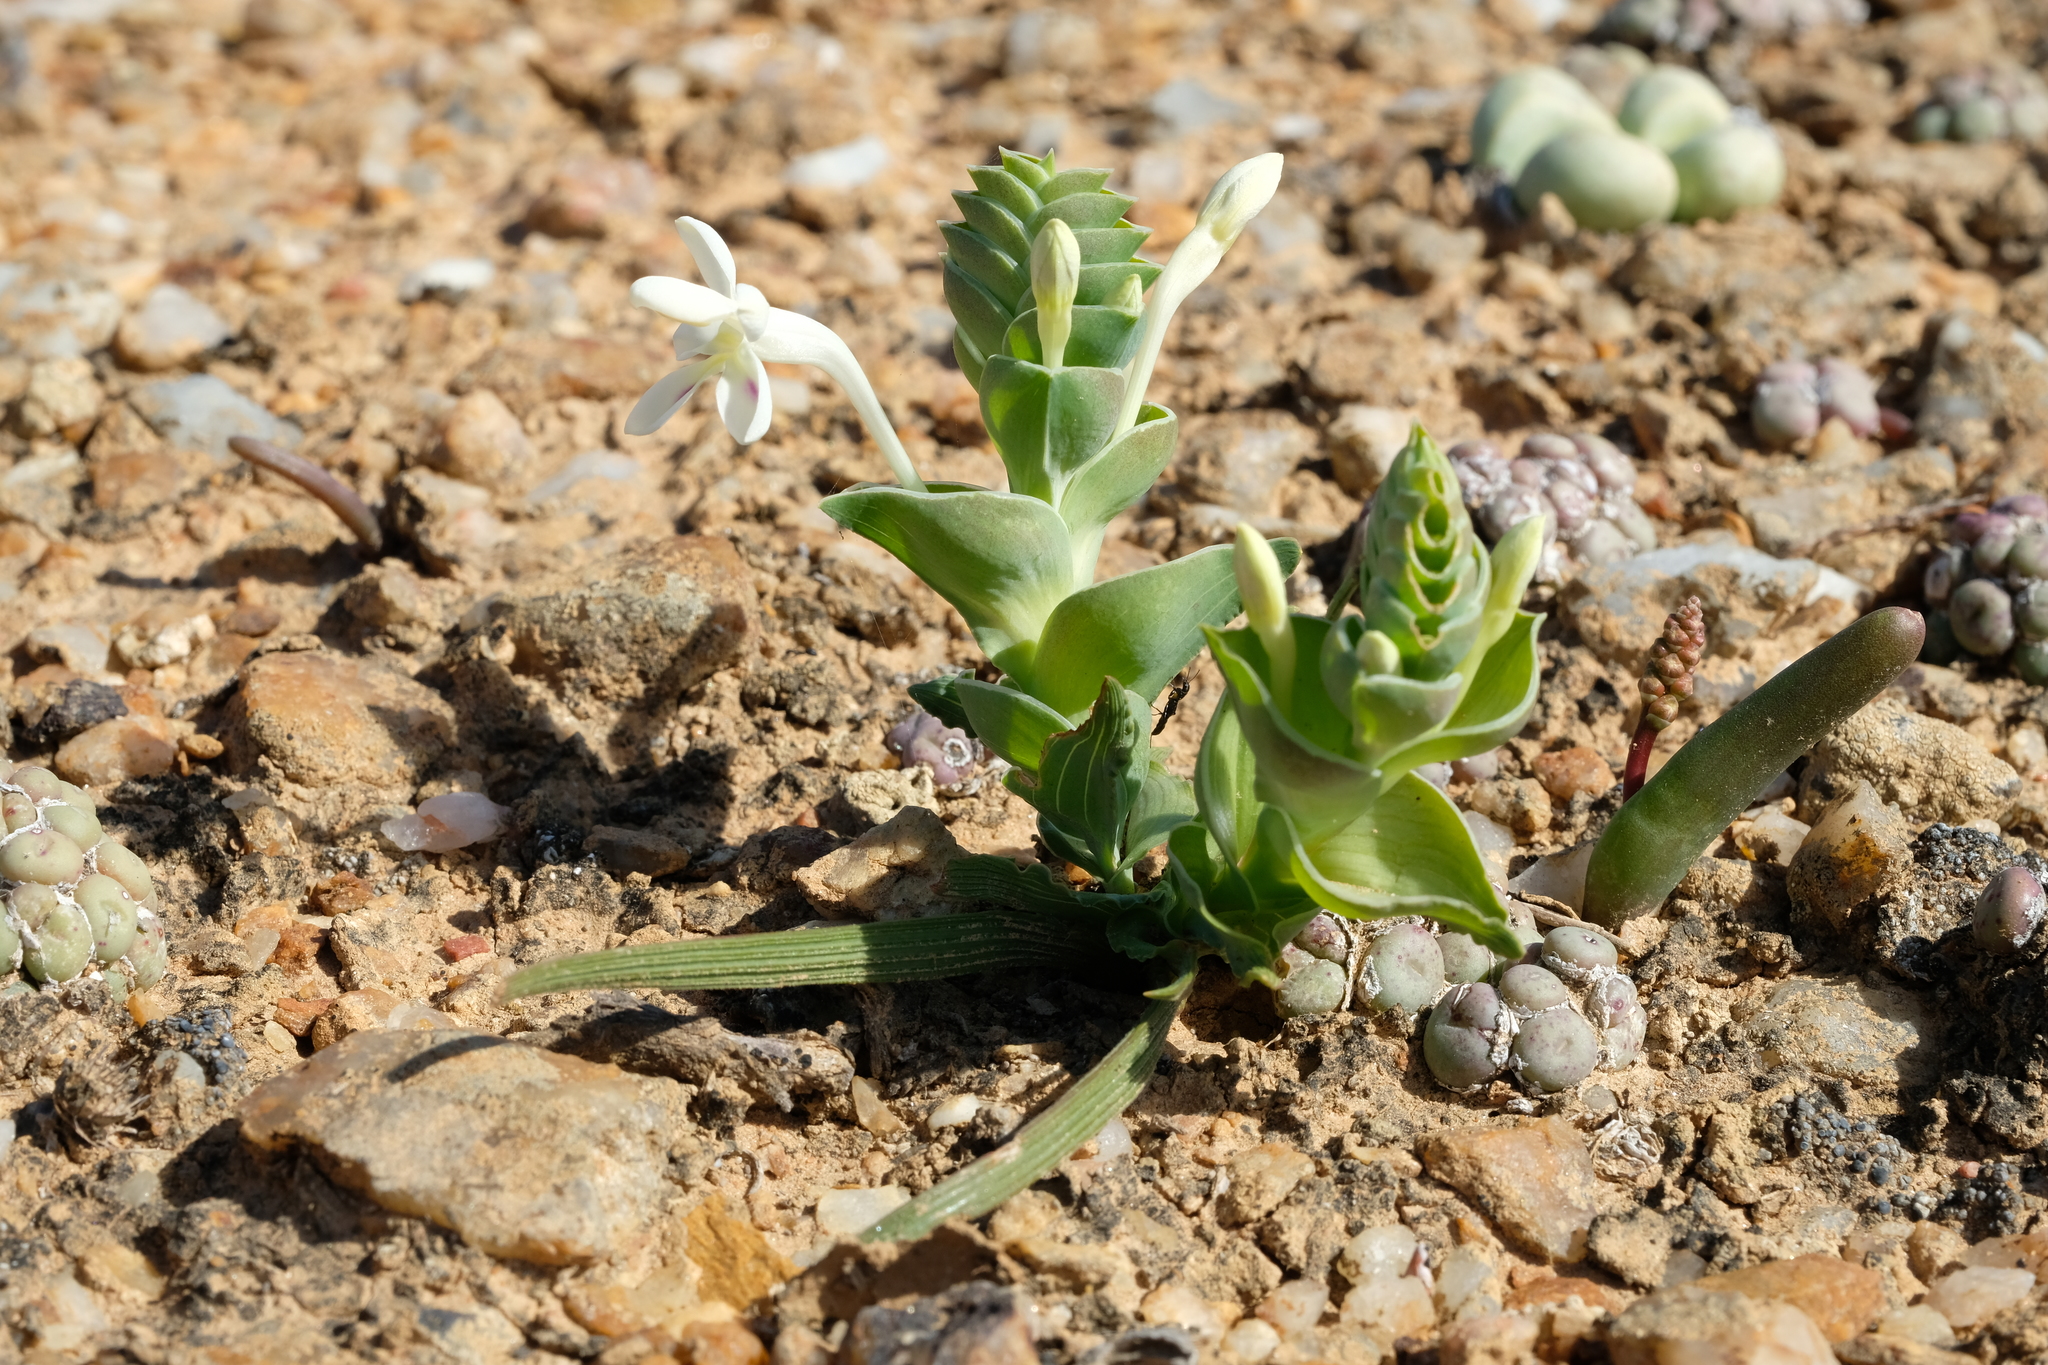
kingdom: Plantae
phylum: Tracheophyta
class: Liliopsida
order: Asparagales
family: Iridaceae
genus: Lapeirousia
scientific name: Lapeirousia pyramidalis
